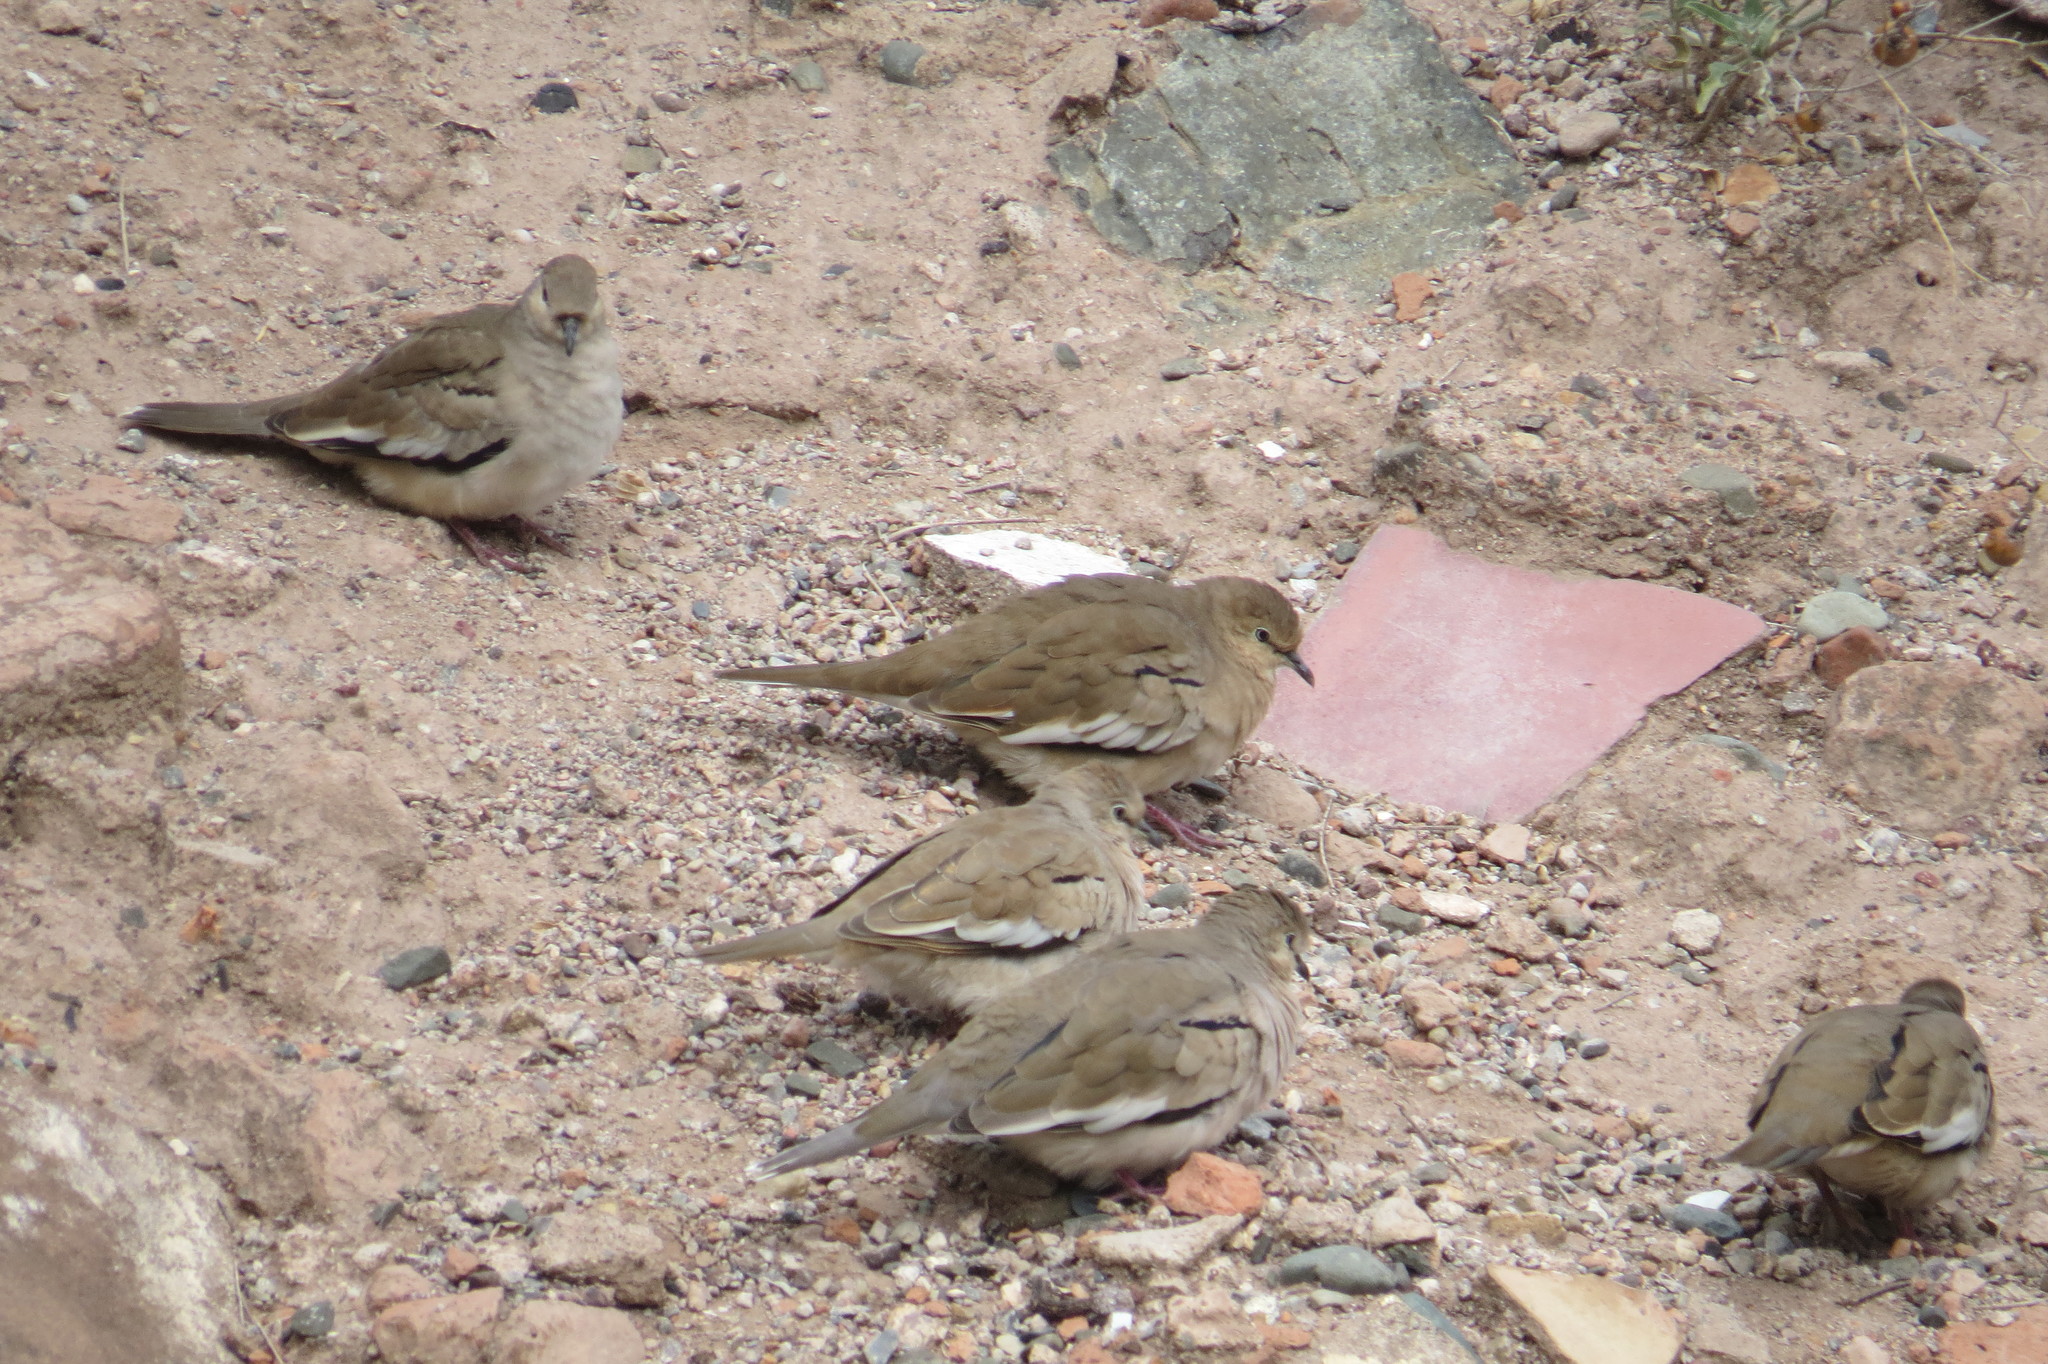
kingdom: Animalia
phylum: Chordata
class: Aves
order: Columbiformes
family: Columbidae
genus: Columbina
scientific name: Columbina picui
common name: Picui ground dove
